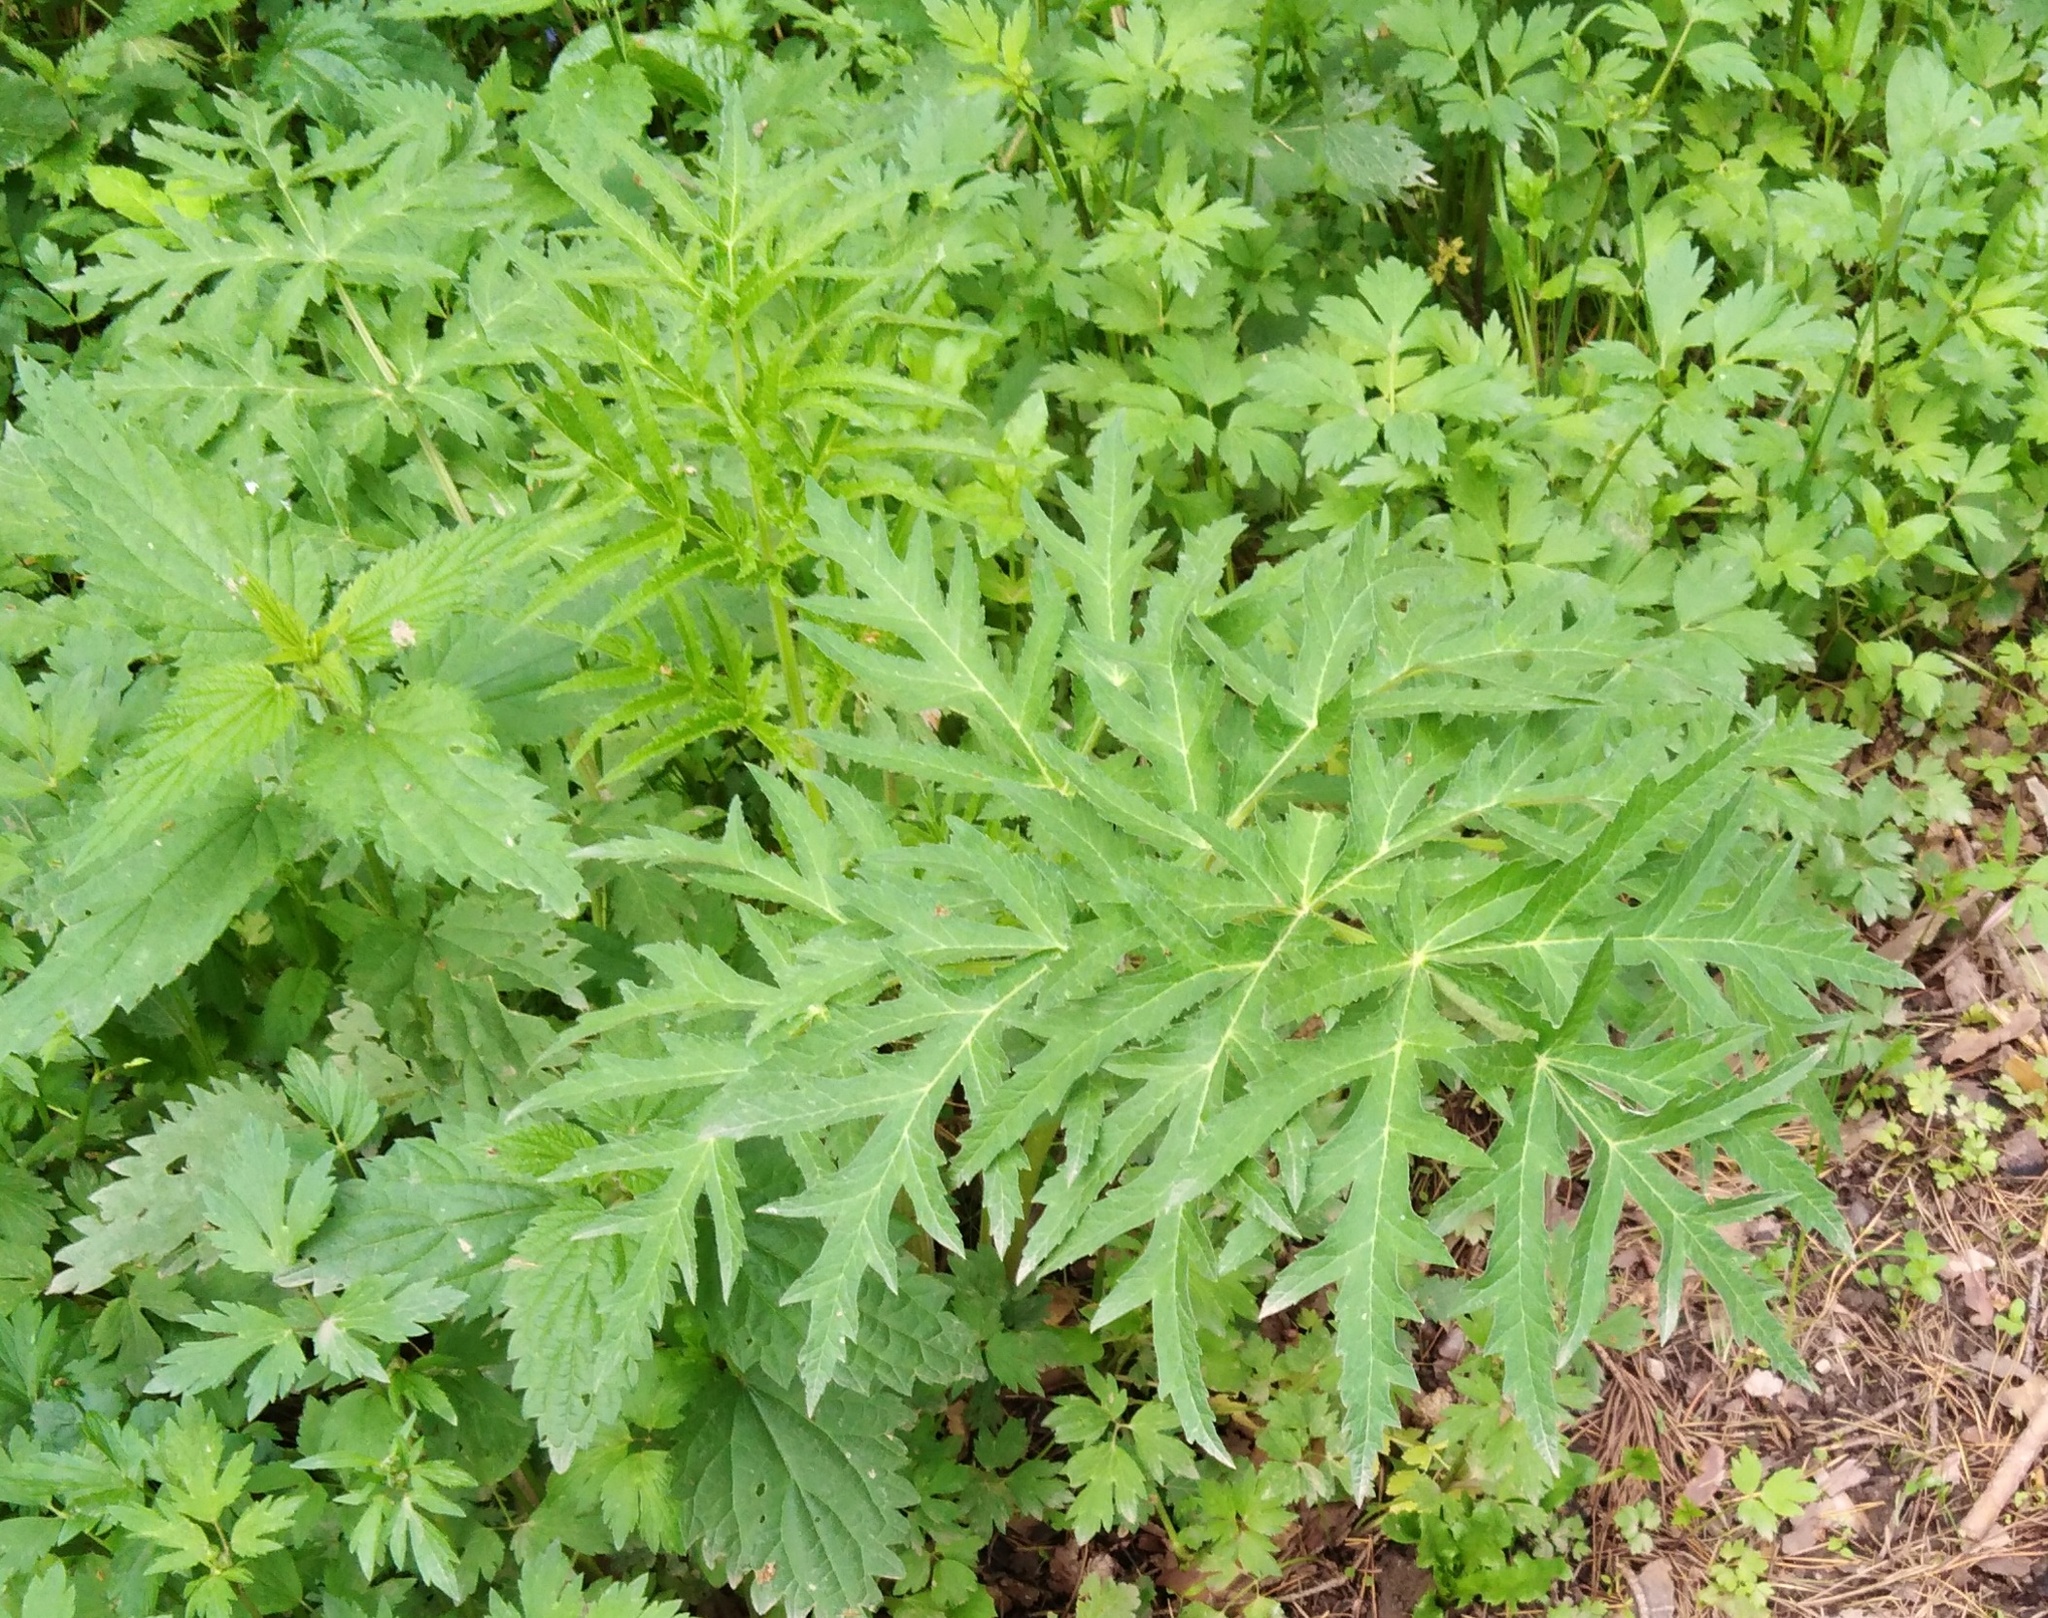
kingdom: Plantae
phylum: Tracheophyta
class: Magnoliopsida
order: Apiales
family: Apiaceae
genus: Heracleum
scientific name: Heracleum sphondylium
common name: Hogweed
